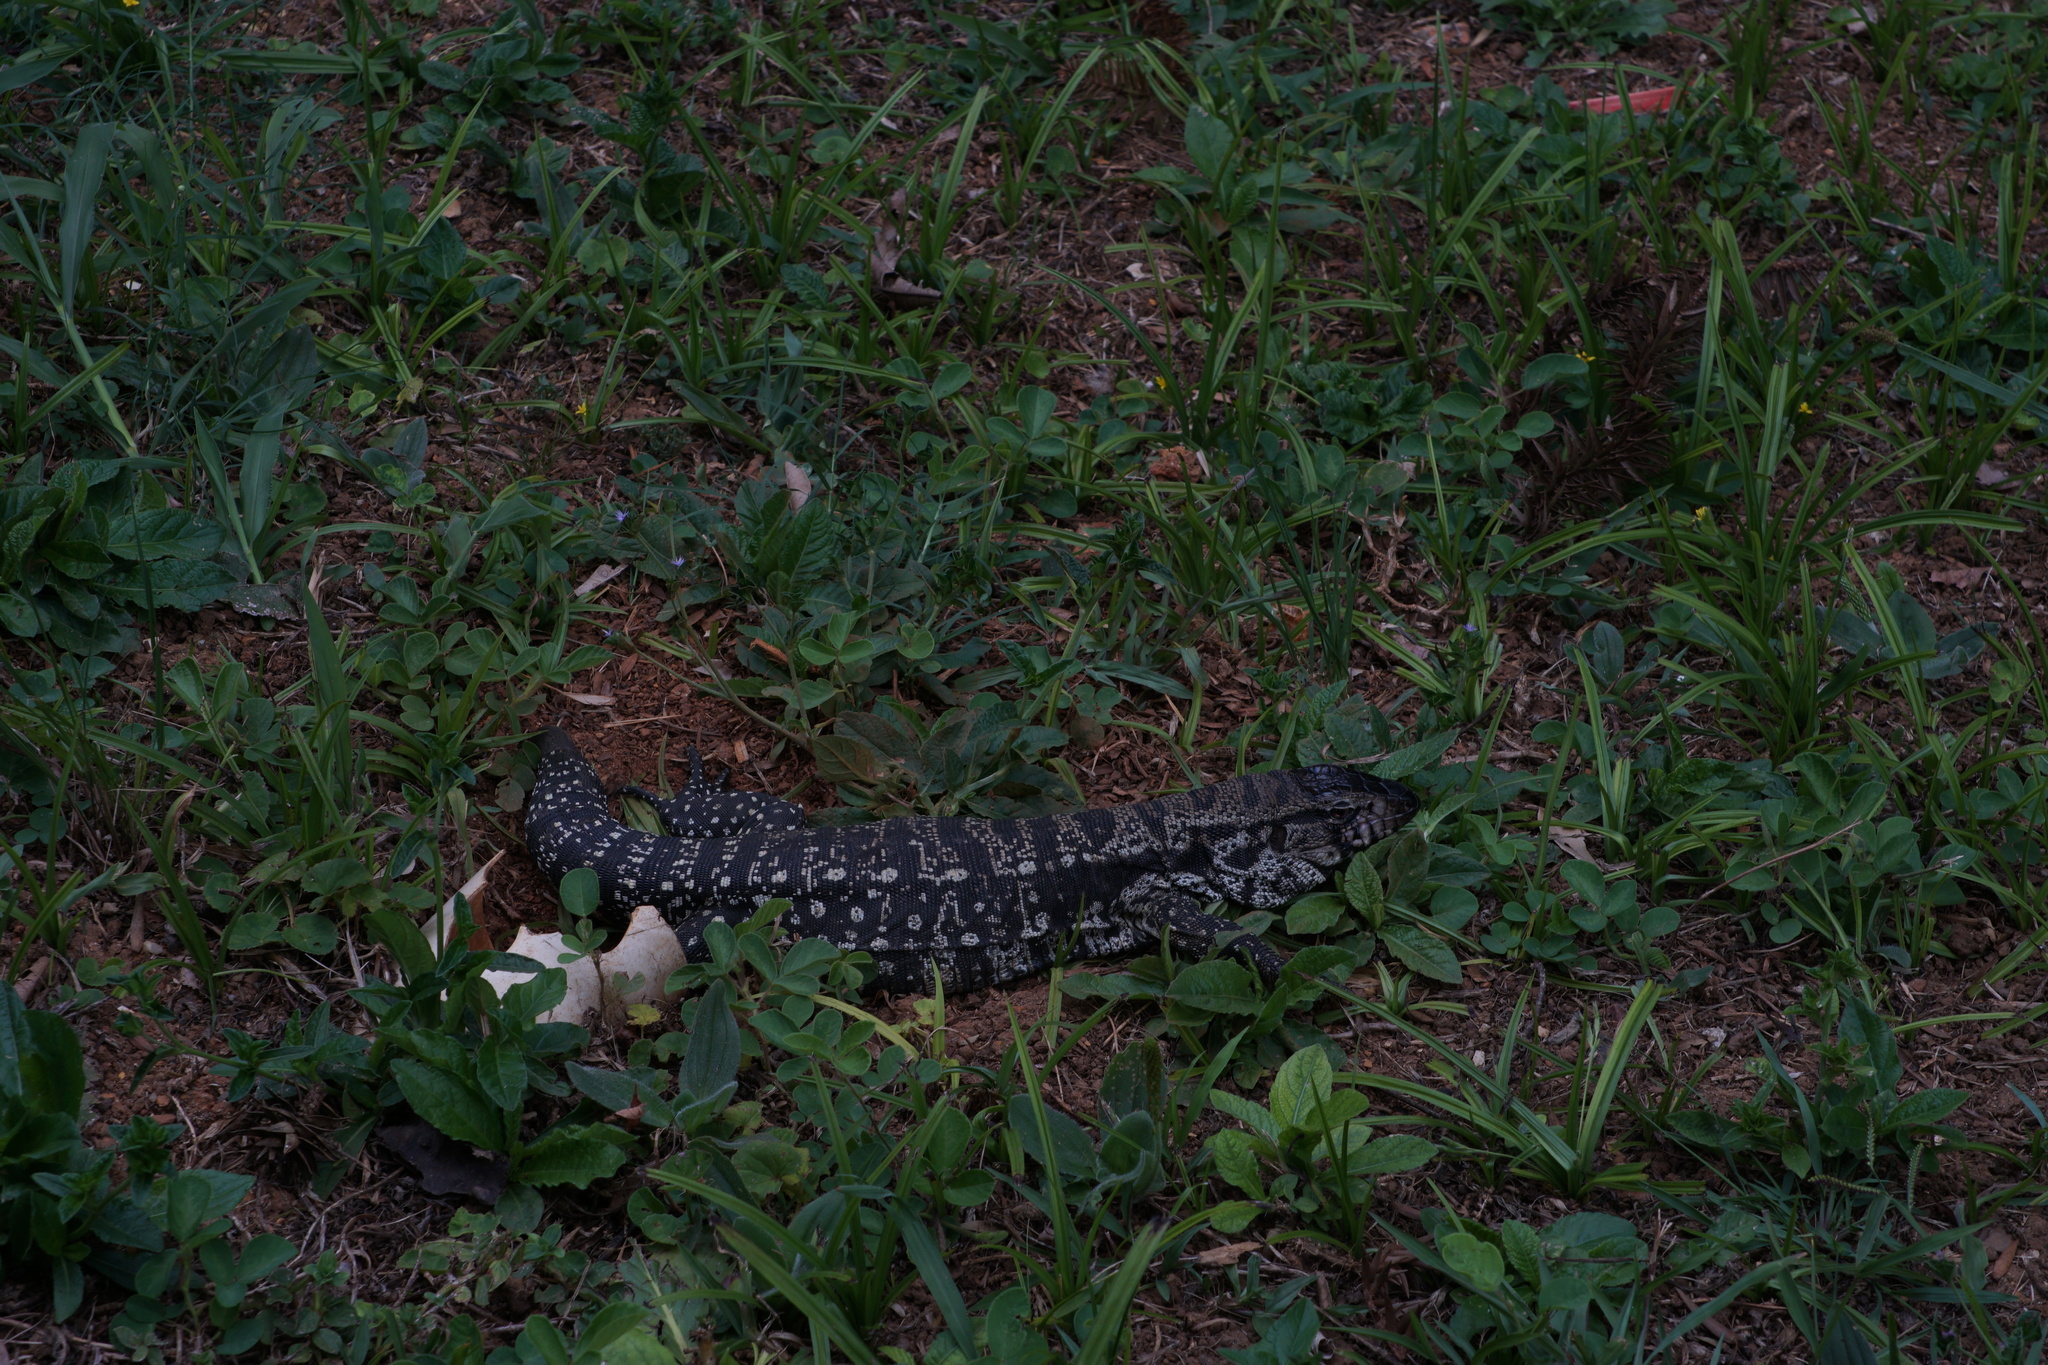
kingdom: Animalia
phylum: Chordata
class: Squamata
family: Teiidae
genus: Salvator
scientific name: Salvator merianae
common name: Argentine black and white tegu
